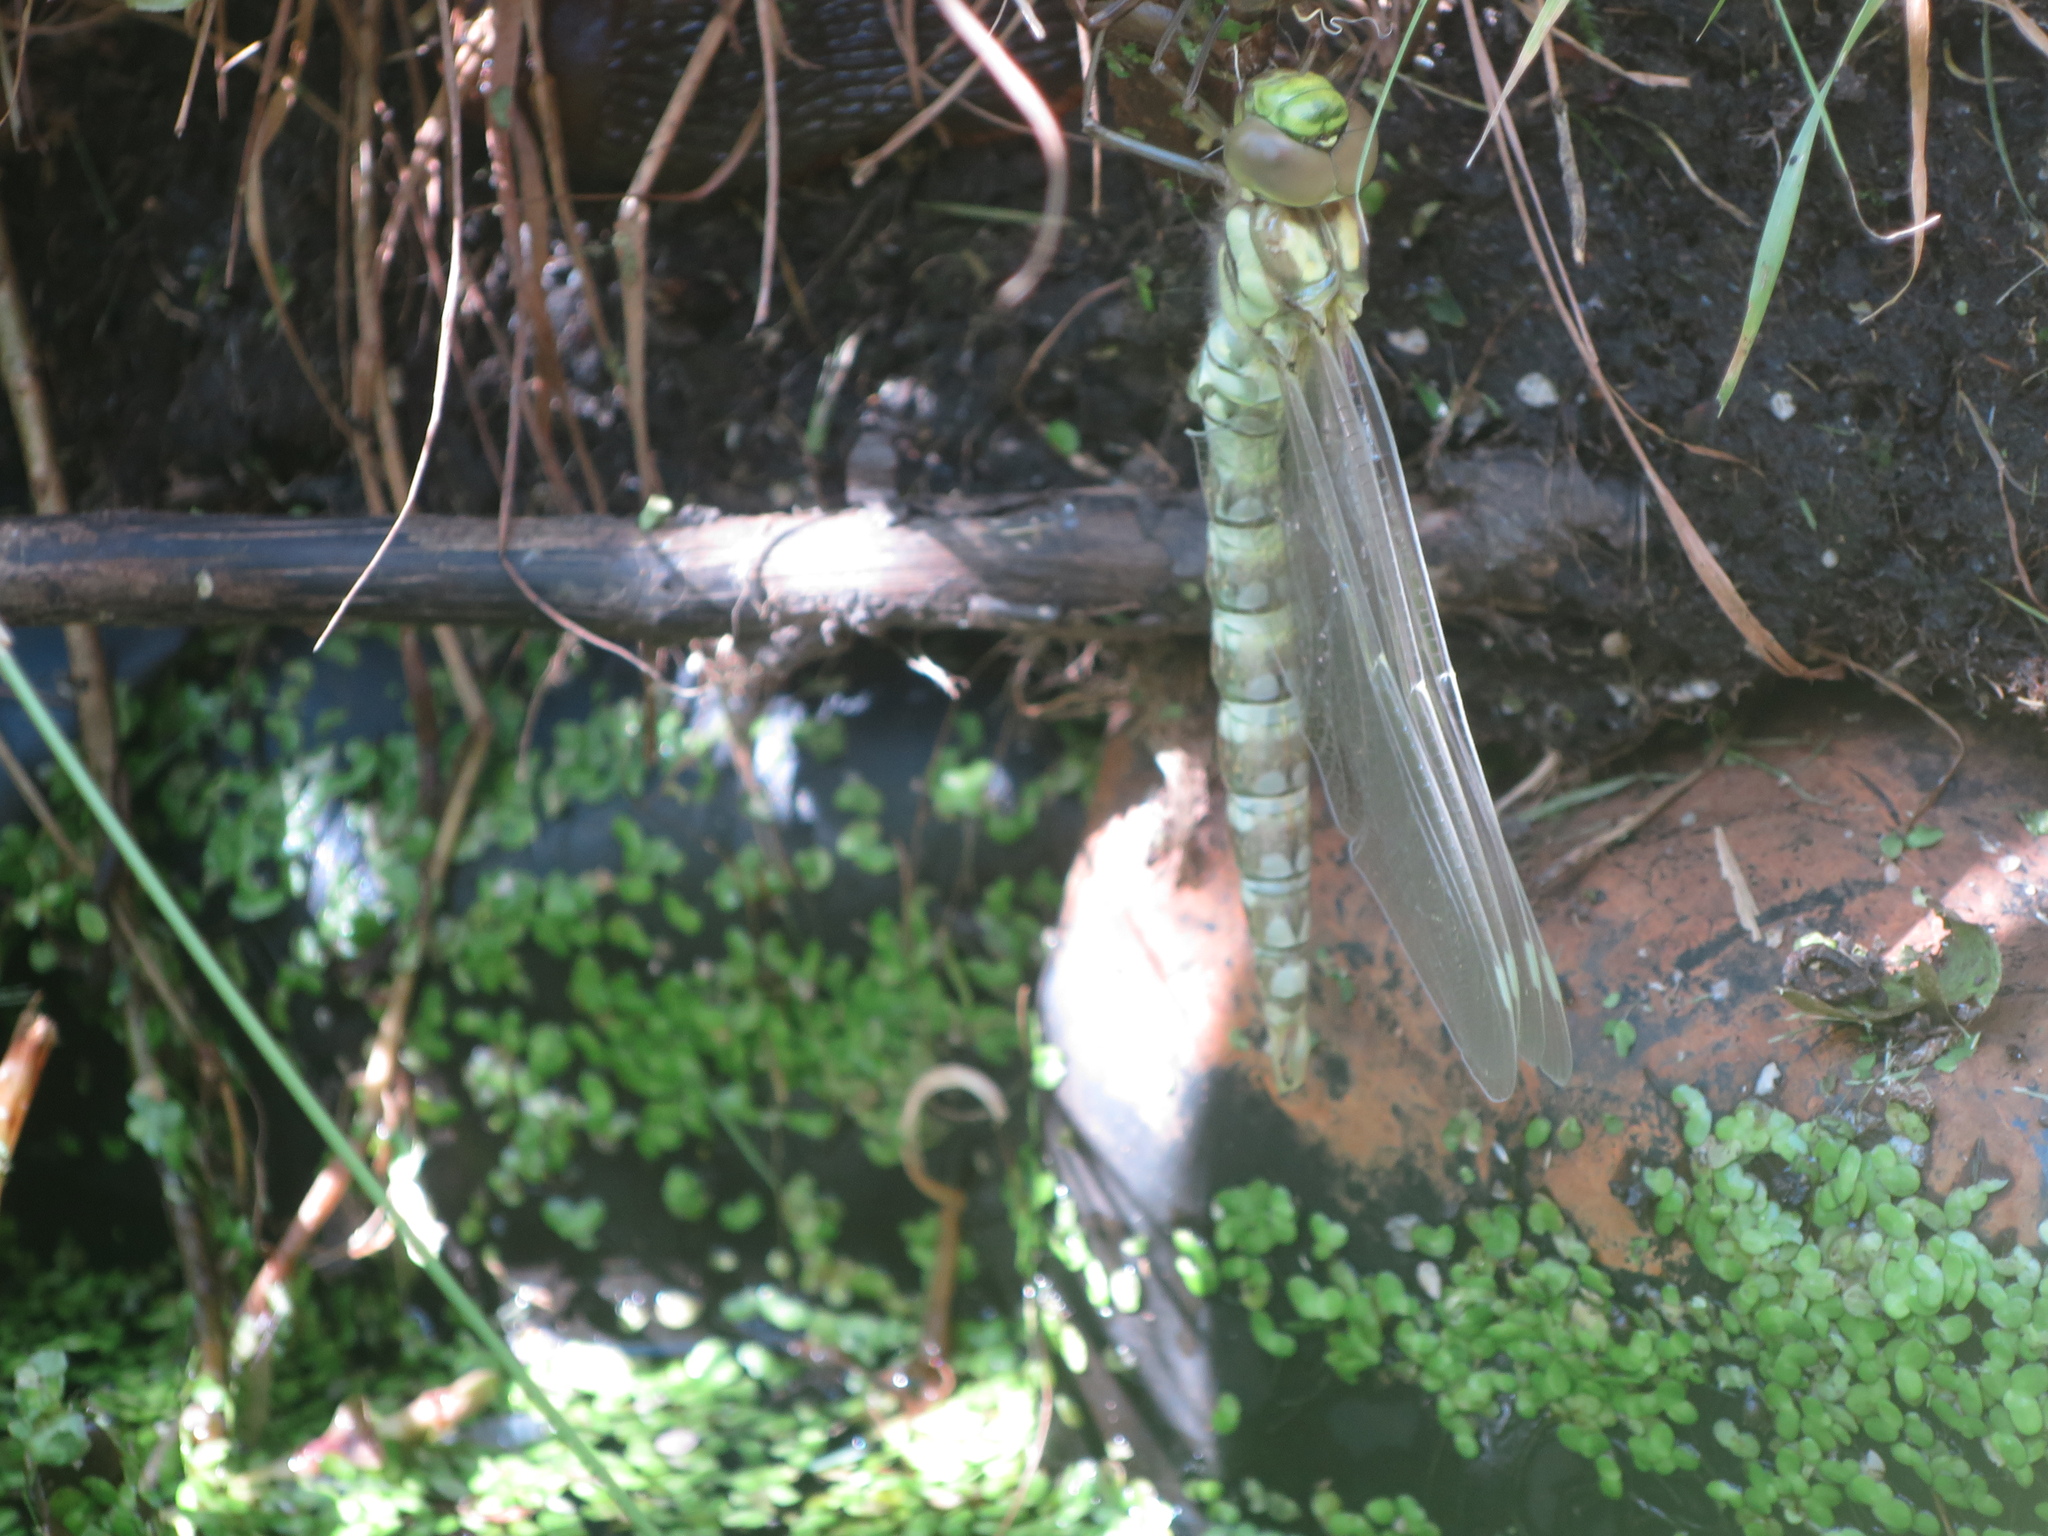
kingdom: Animalia
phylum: Arthropoda
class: Insecta
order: Odonata
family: Aeshnidae
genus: Aeshna
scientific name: Aeshna cyanea
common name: Southern hawker
